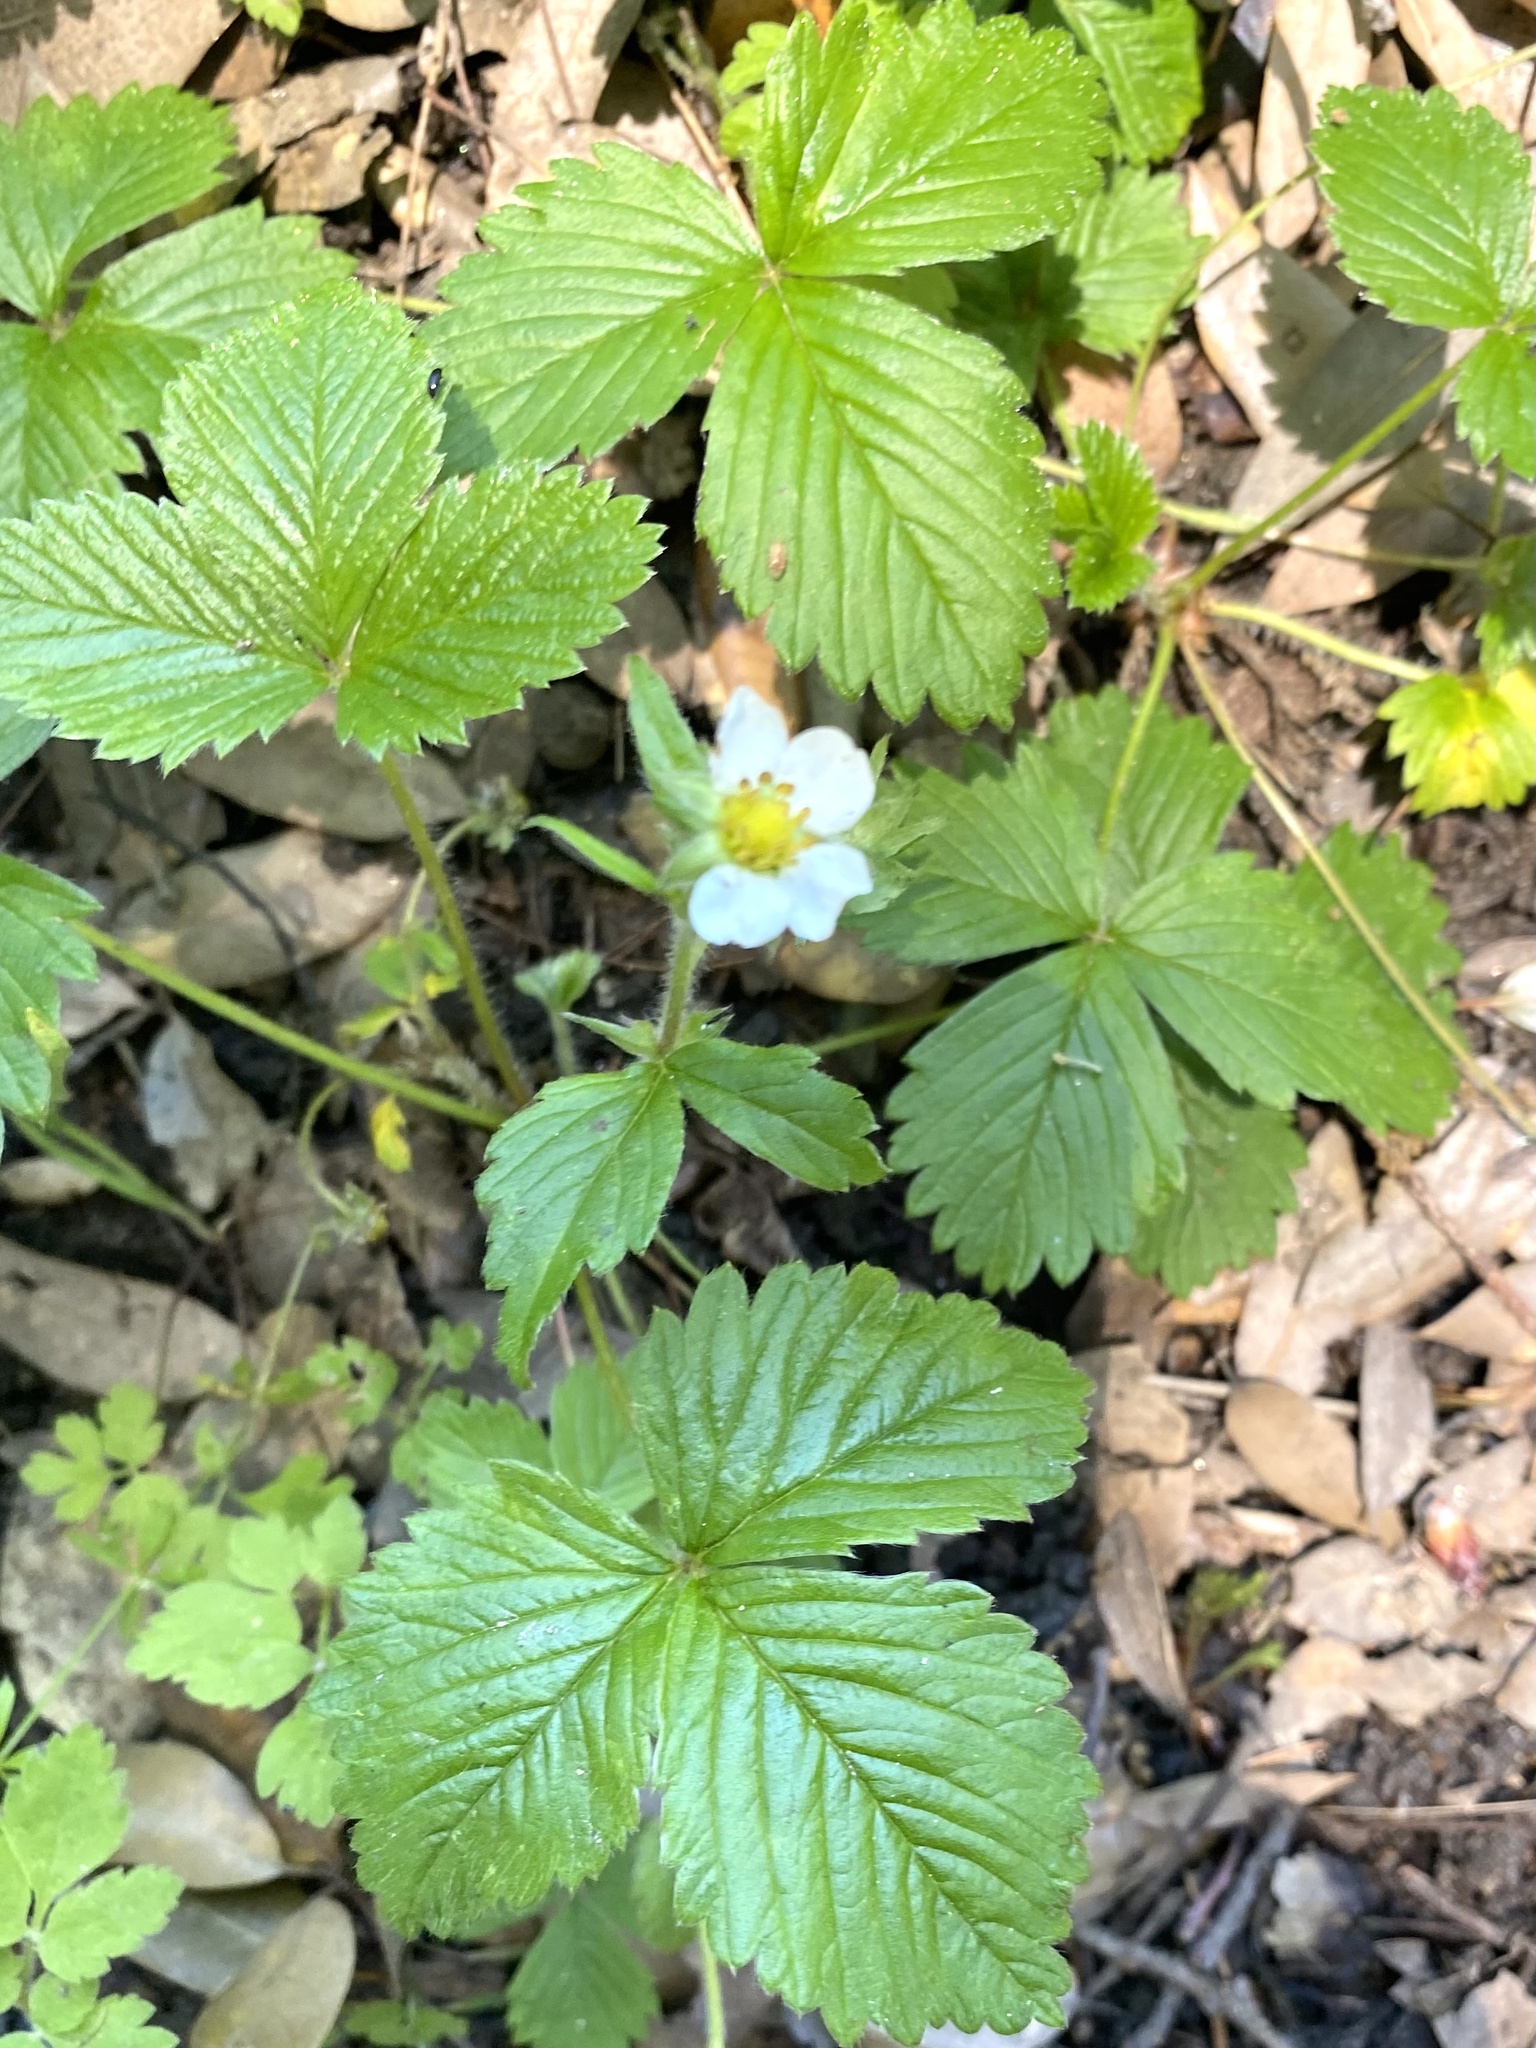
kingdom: Plantae
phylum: Tracheophyta
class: Magnoliopsida
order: Rosales
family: Rosaceae
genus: Fragaria
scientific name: Fragaria vesca
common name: Wild strawberry
